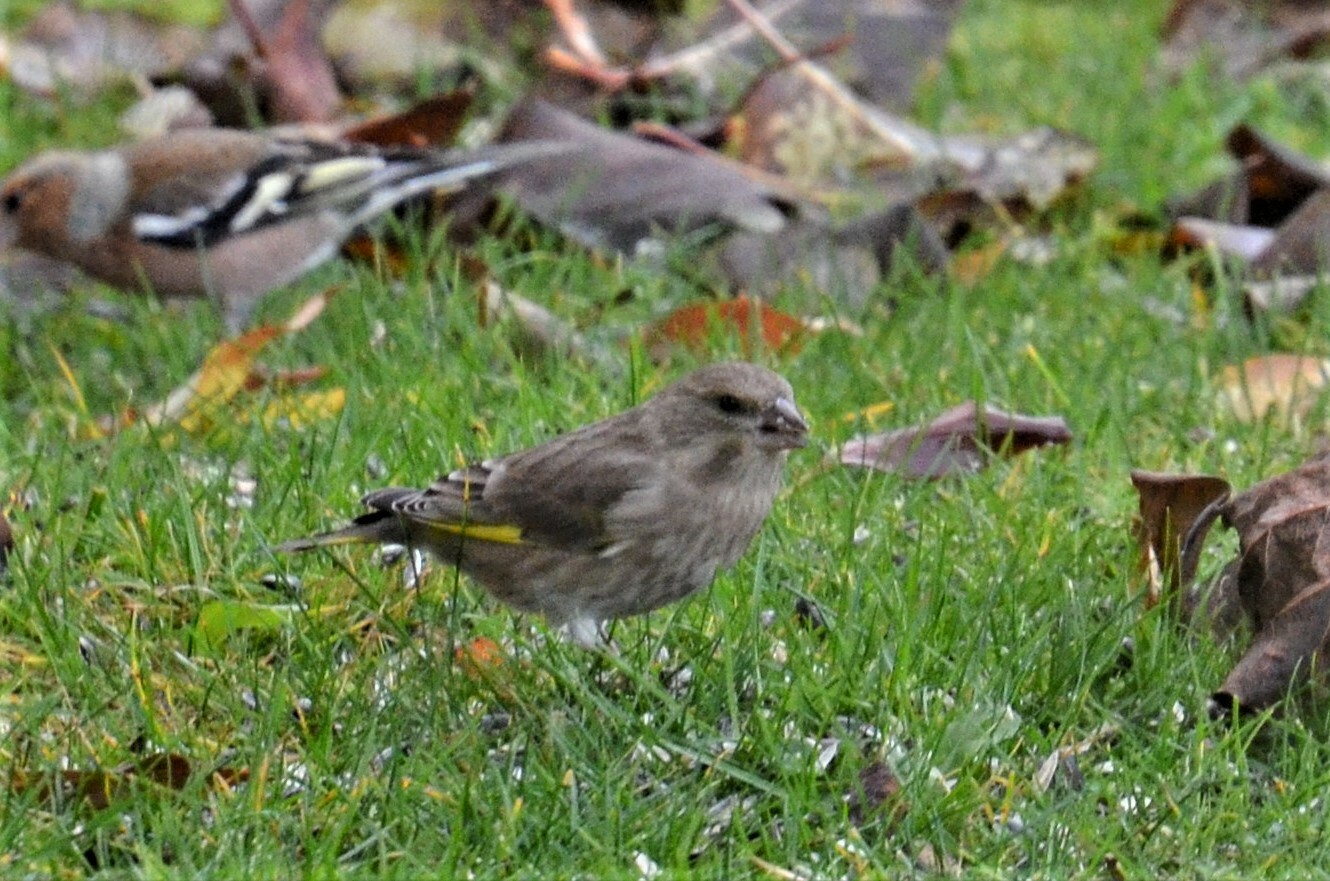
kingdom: Plantae
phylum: Tracheophyta
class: Liliopsida
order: Poales
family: Poaceae
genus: Chloris
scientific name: Chloris chloris
